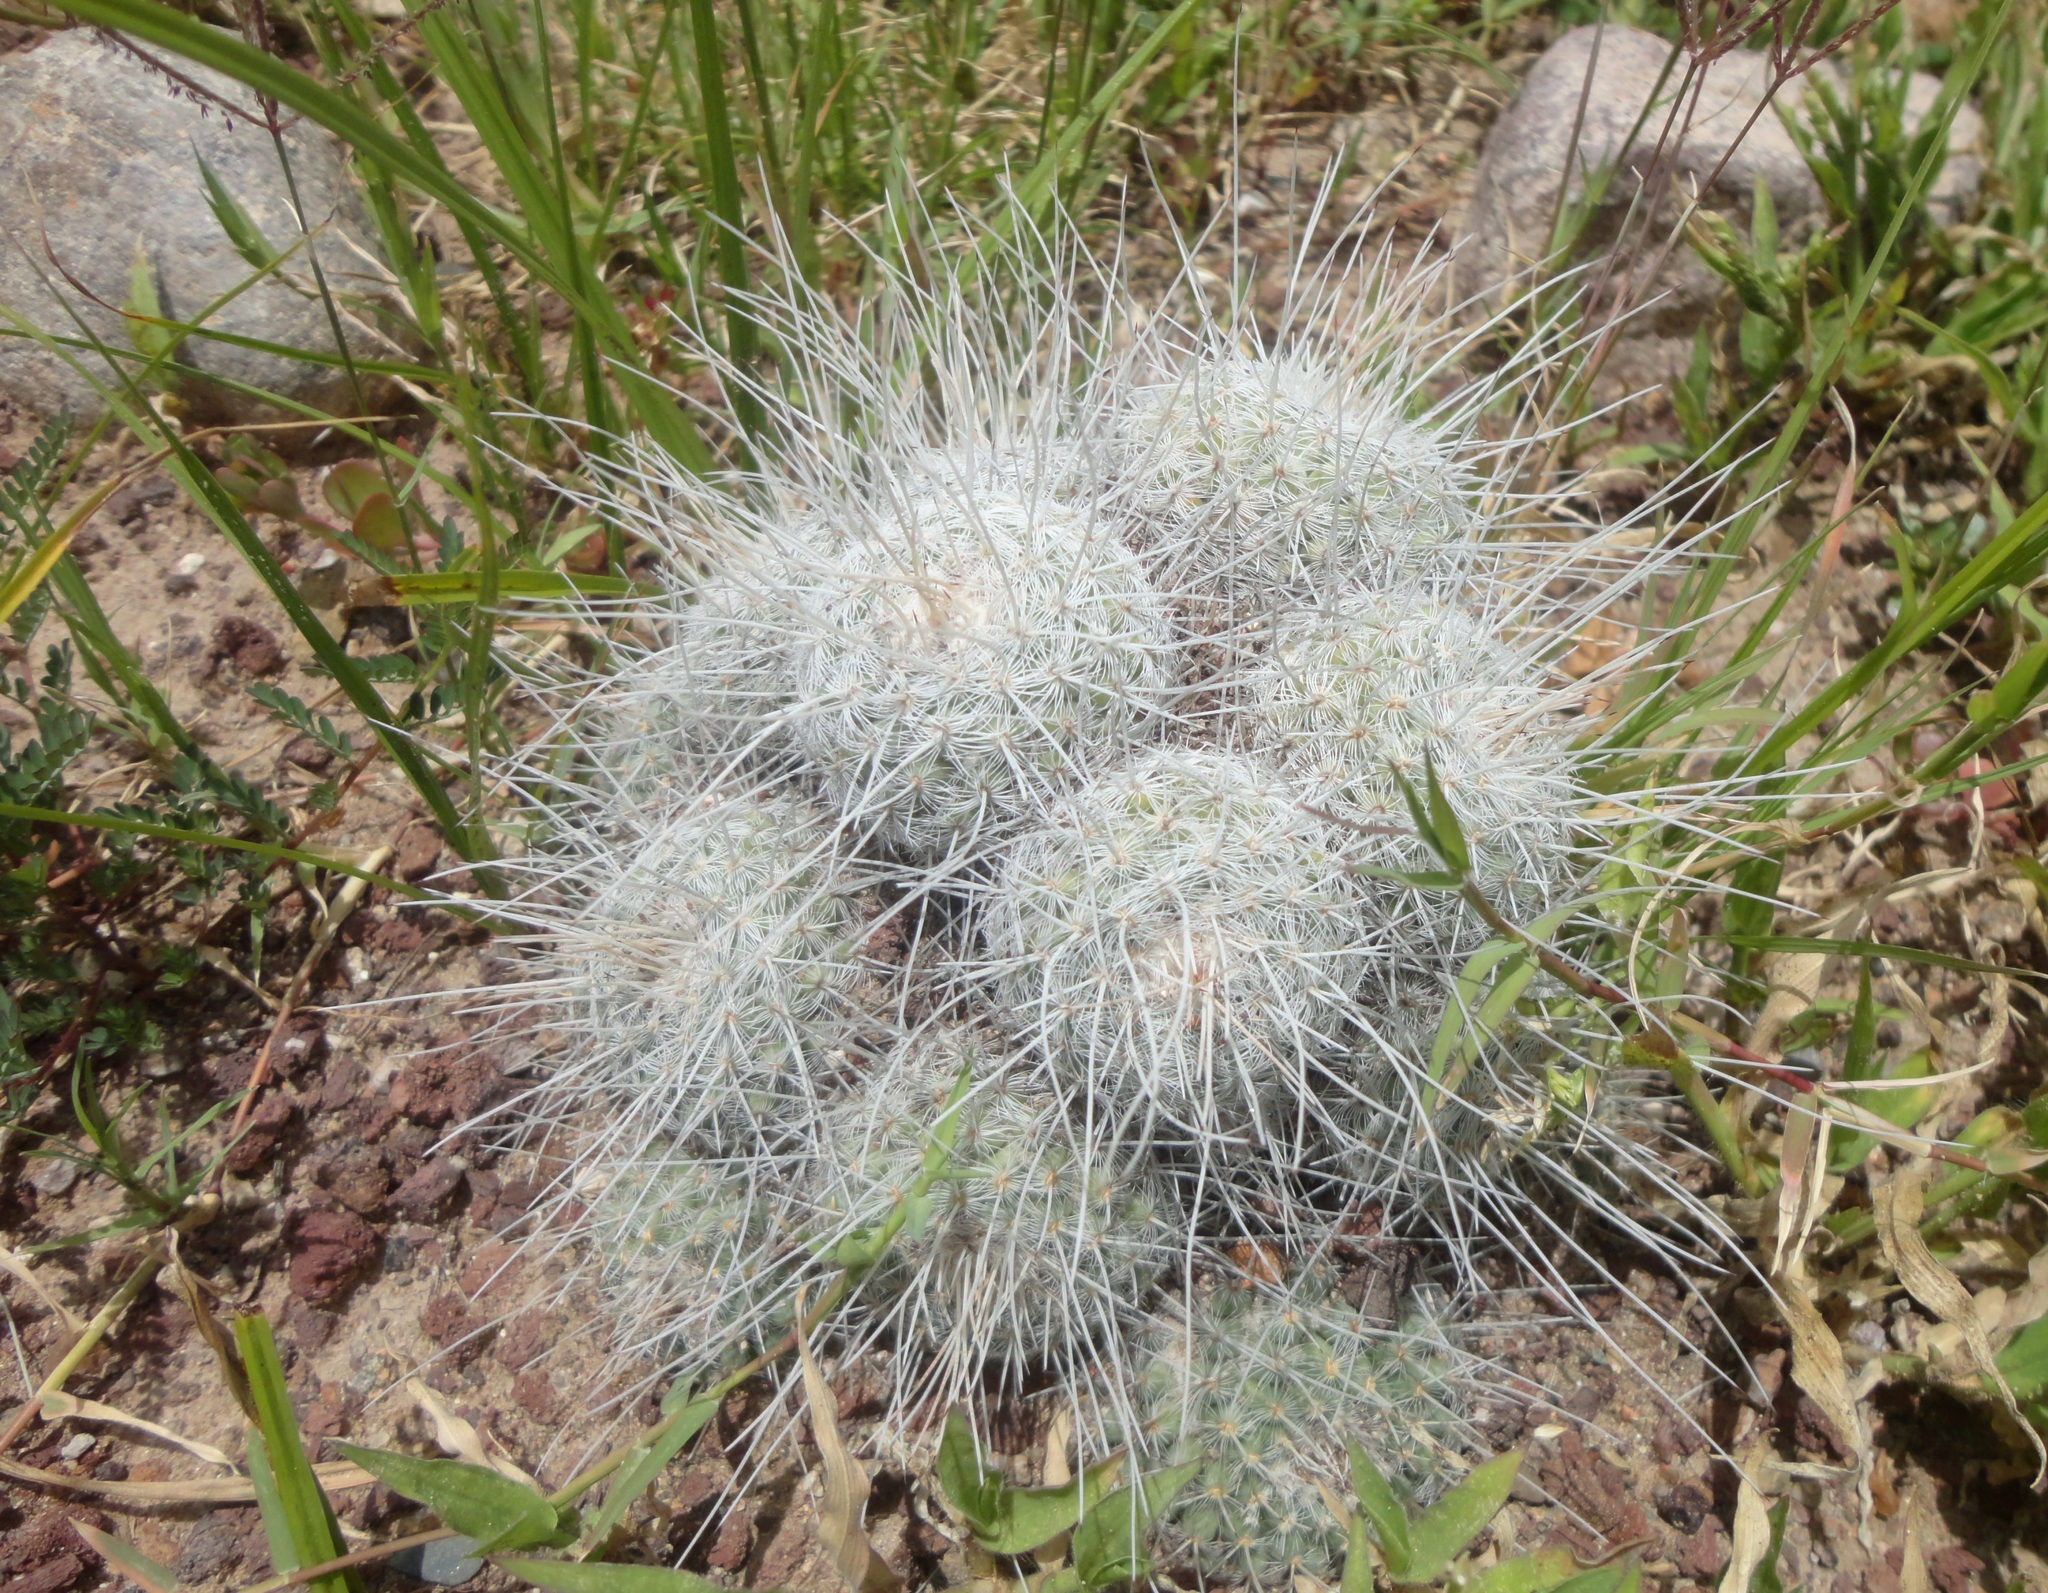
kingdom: Plantae
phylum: Tracheophyta
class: Magnoliopsida
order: Caryophyllales
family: Cactaceae
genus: Mammillaria
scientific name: Mammillaria geminispina
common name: Whitey
